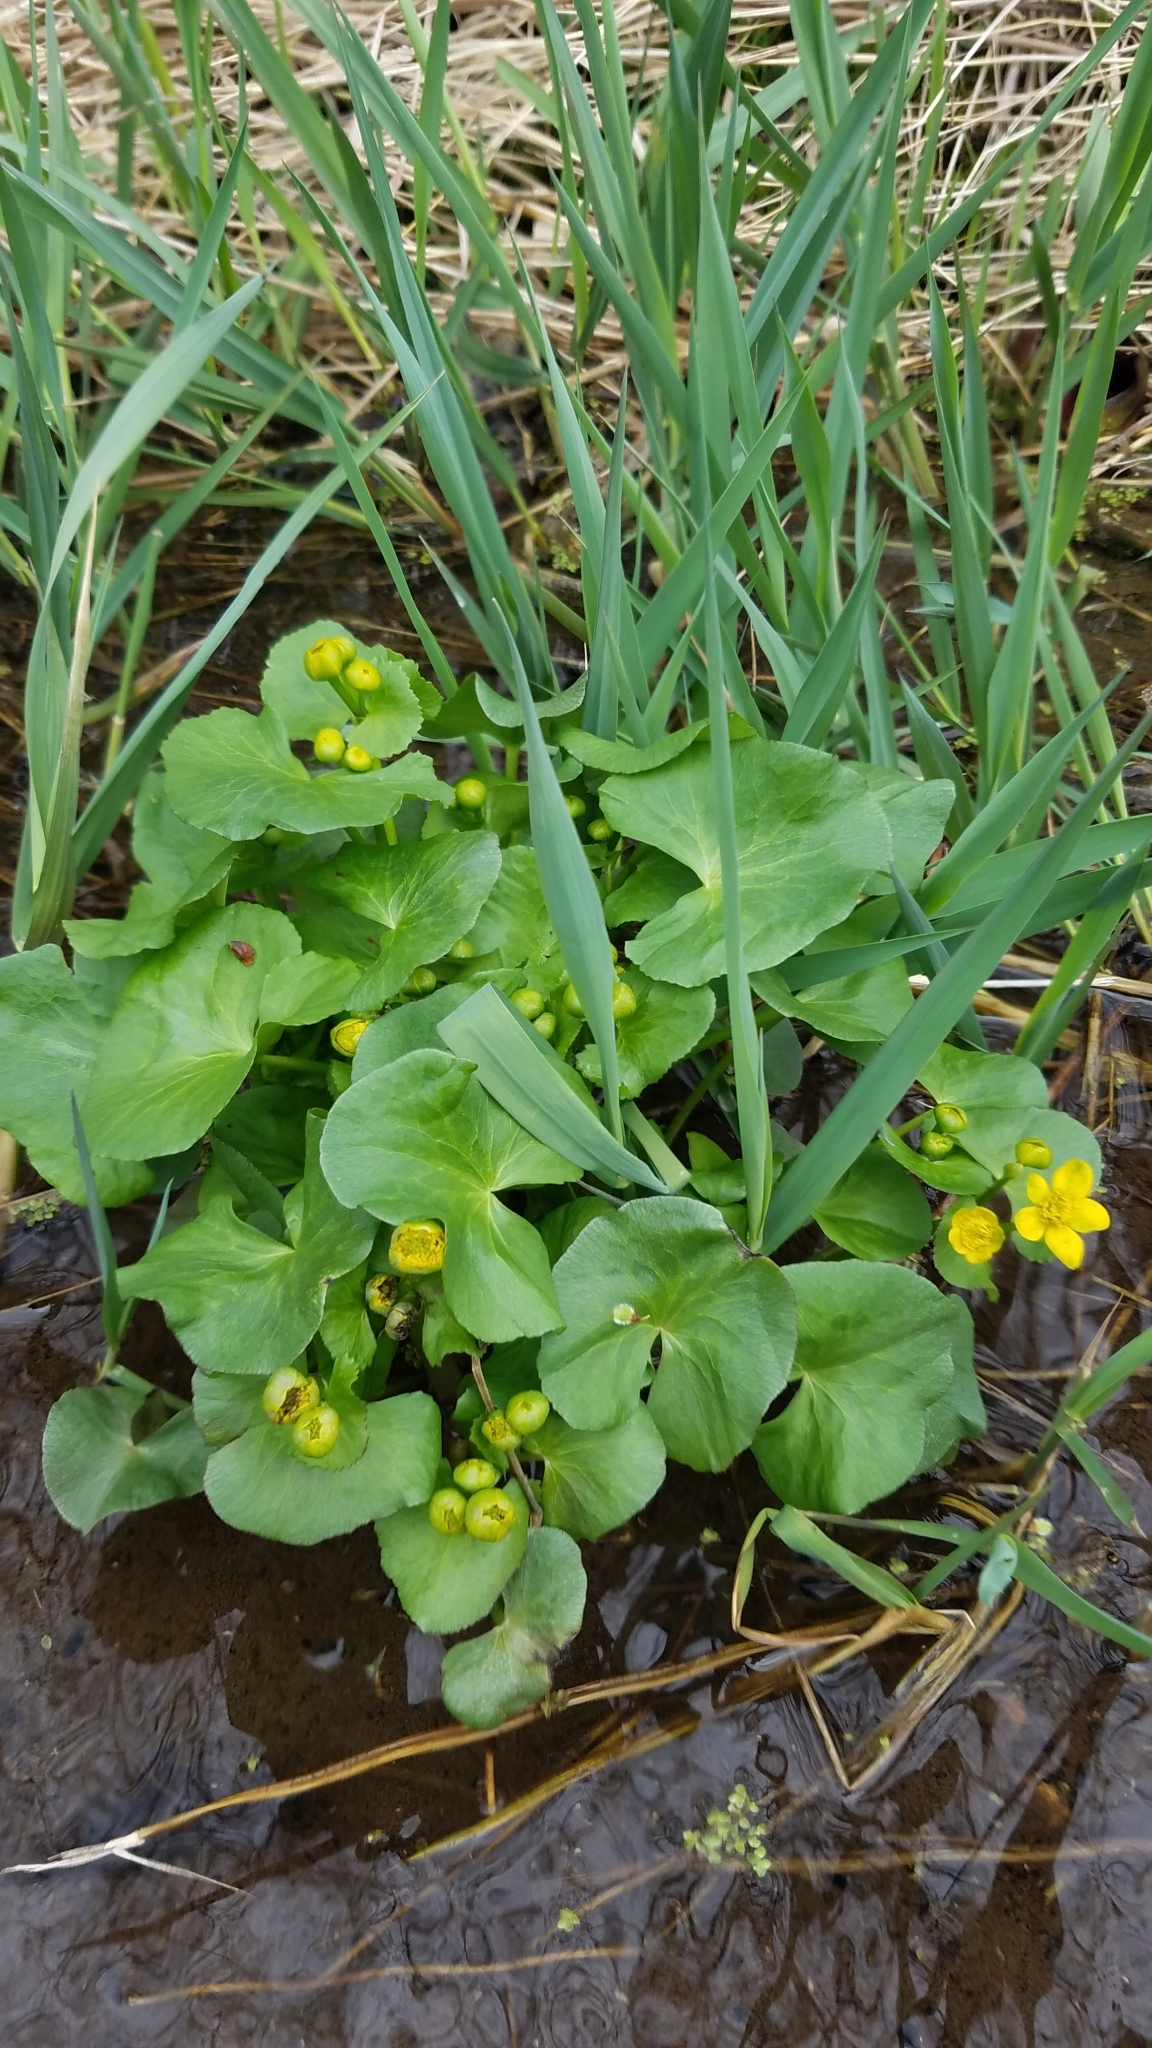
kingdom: Plantae
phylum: Tracheophyta
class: Magnoliopsida
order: Ranunculales
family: Ranunculaceae
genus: Caltha
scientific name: Caltha palustris
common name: Marsh marigold
